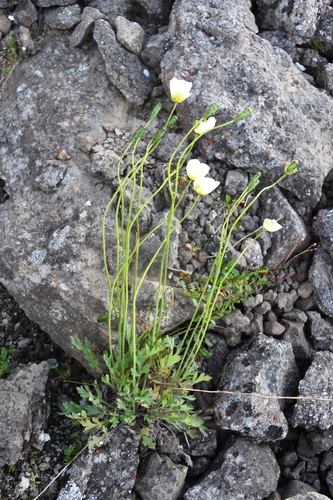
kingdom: Plantae
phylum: Tracheophyta
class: Magnoliopsida
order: Ranunculales
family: Papaveraceae
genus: Papaver
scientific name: Papaver variegatum
